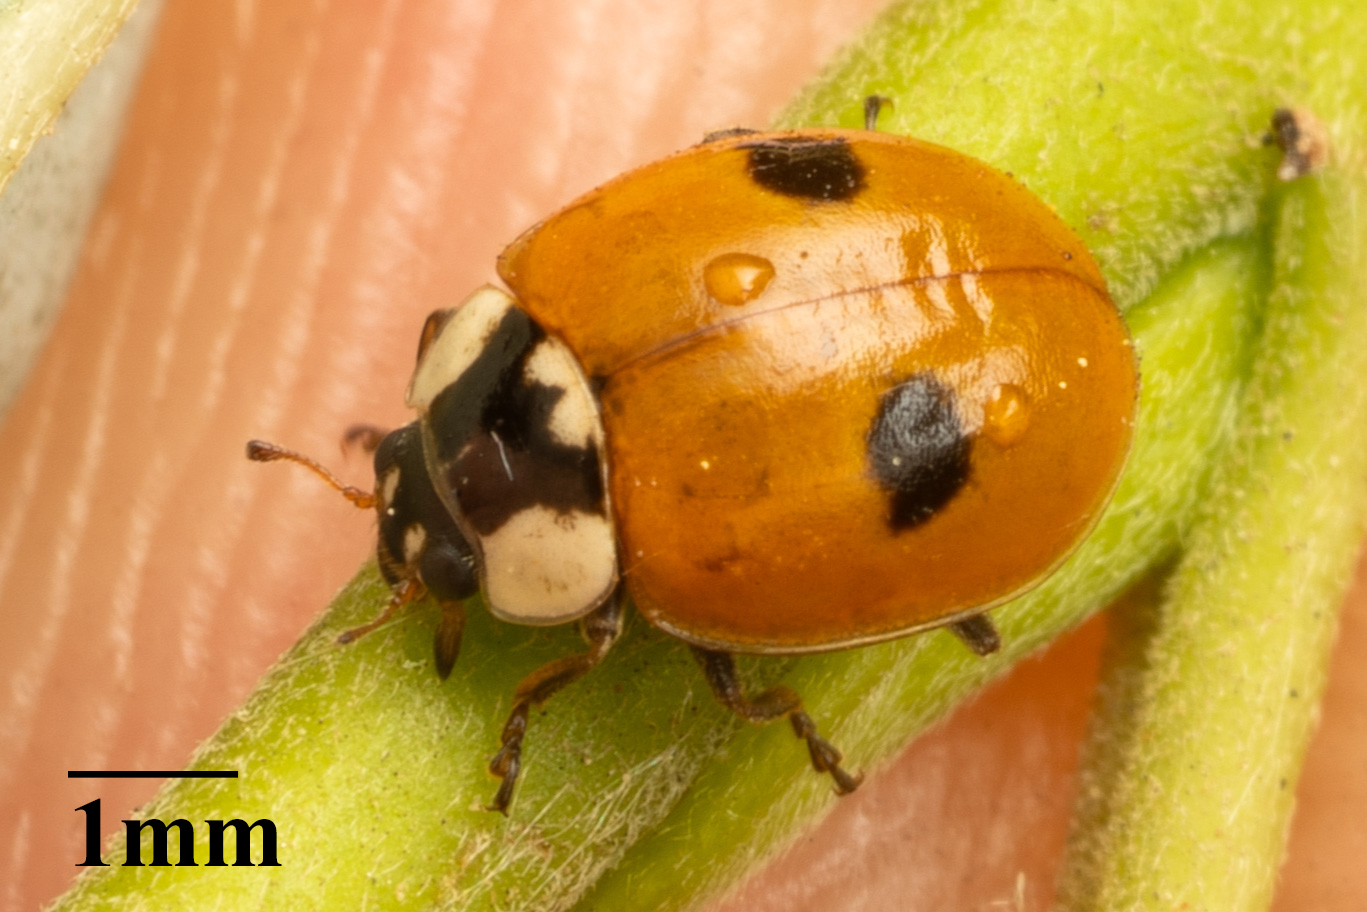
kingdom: Animalia
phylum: Arthropoda
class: Insecta
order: Coleoptera
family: Coccinellidae
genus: Adalia
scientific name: Adalia bipunctata
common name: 2-spot ladybird
